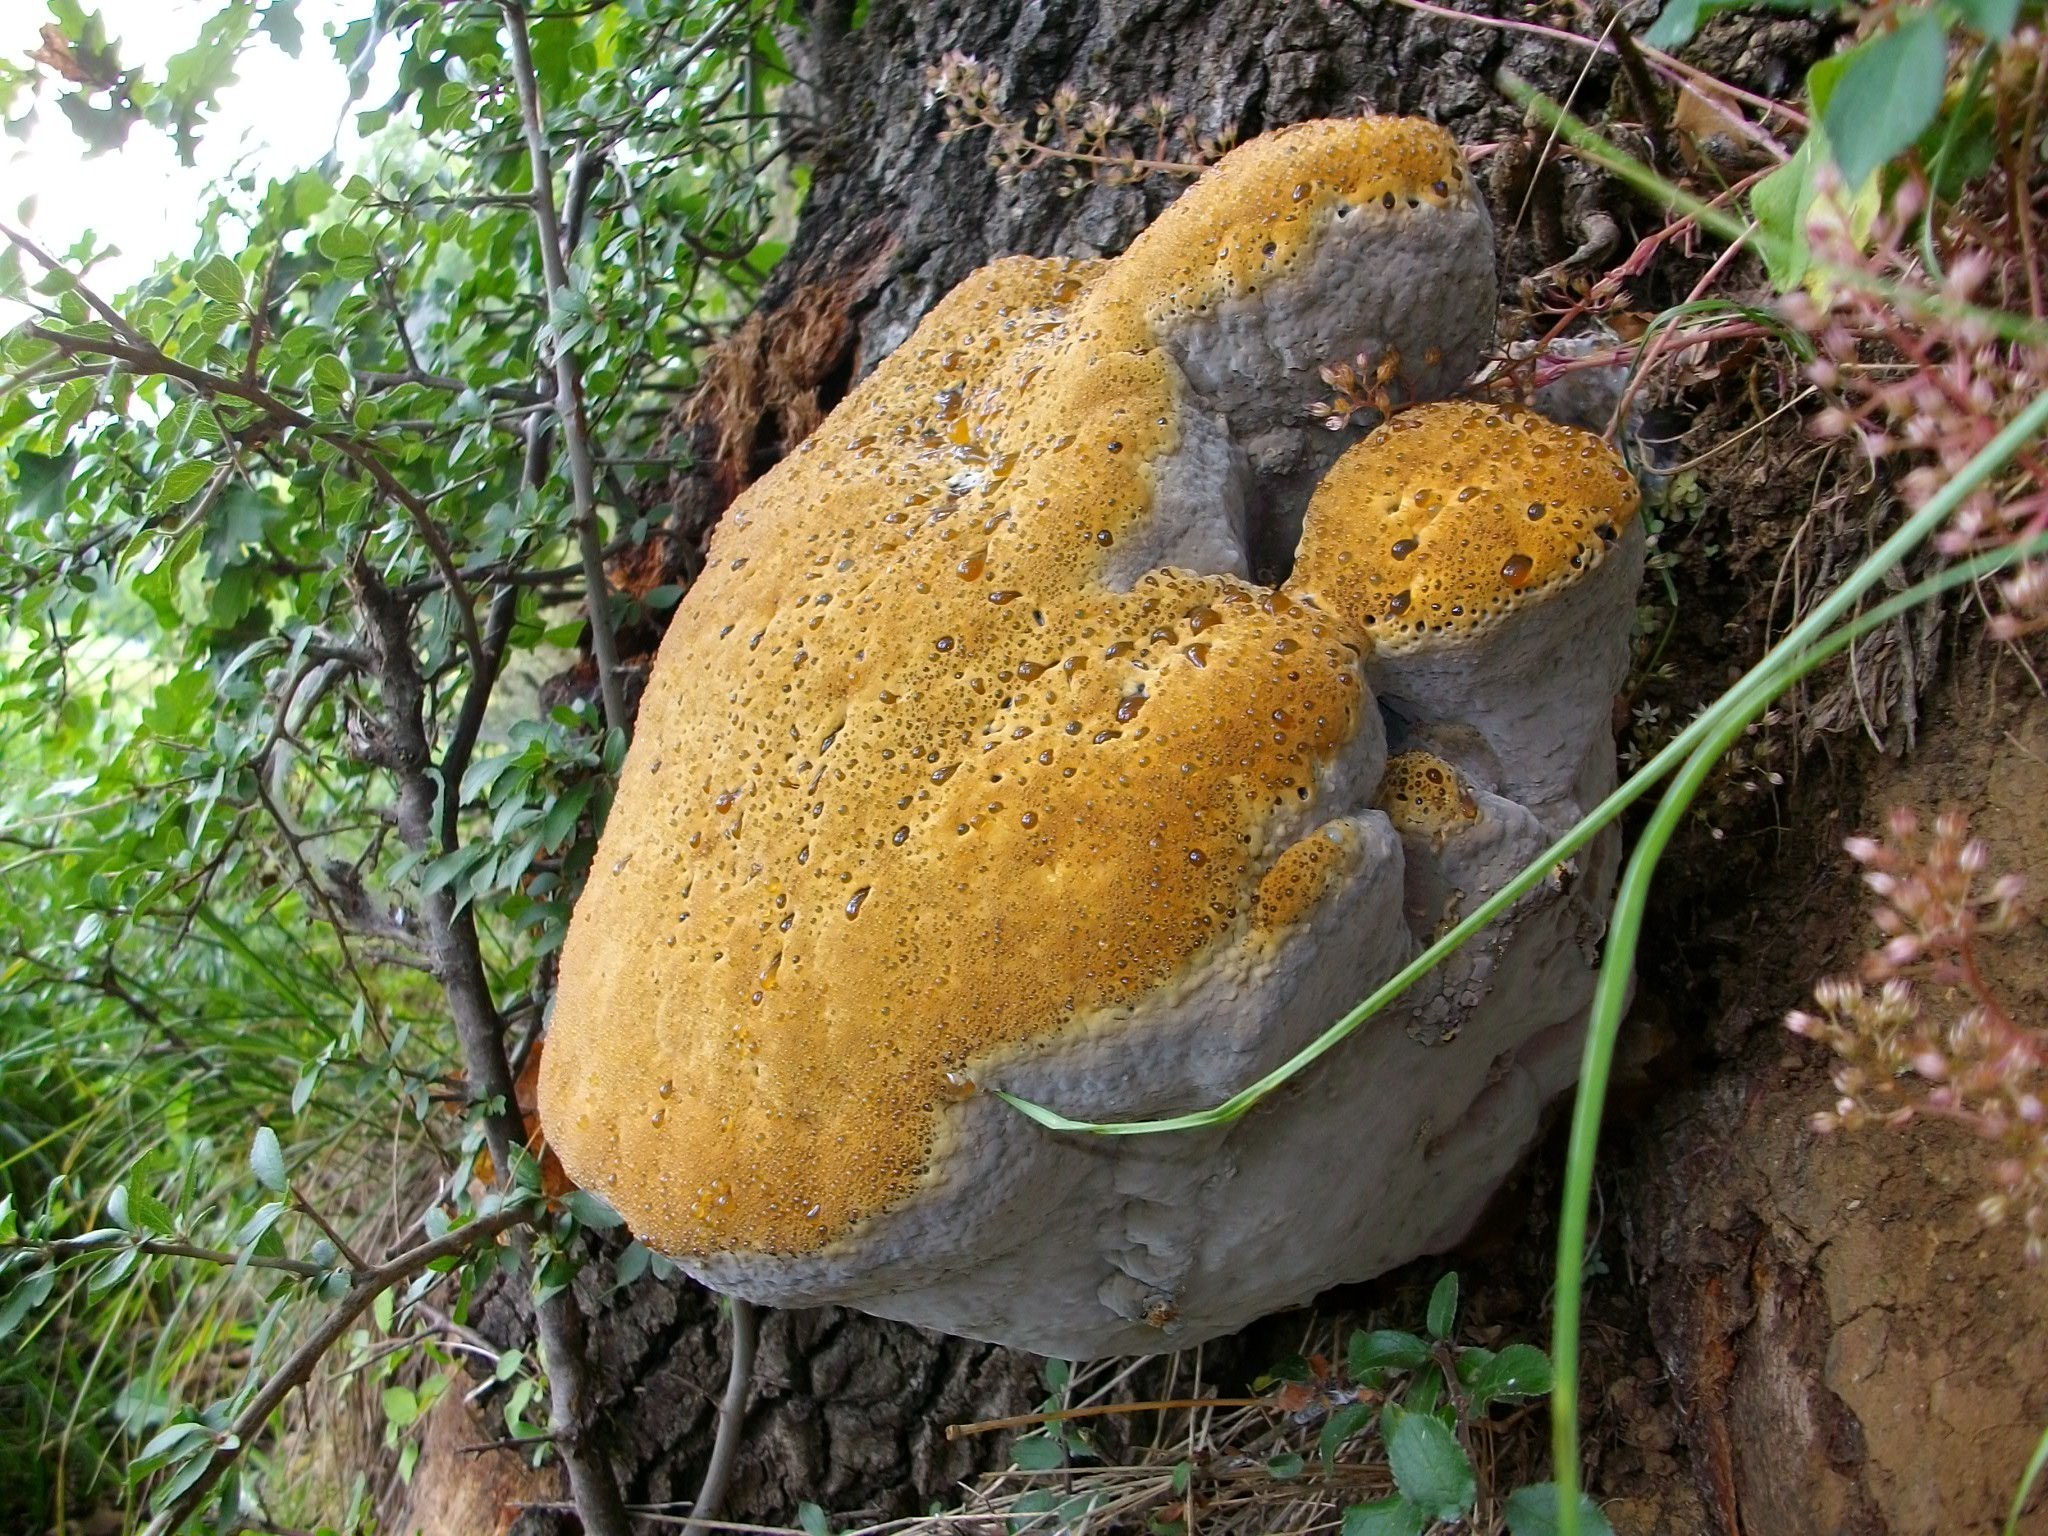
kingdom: Fungi
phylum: Basidiomycota
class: Agaricomycetes
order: Hymenochaetales
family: Hymenochaetaceae
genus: Pseudoinonotus
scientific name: Pseudoinonotus dryadeus
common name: Oak bracket
